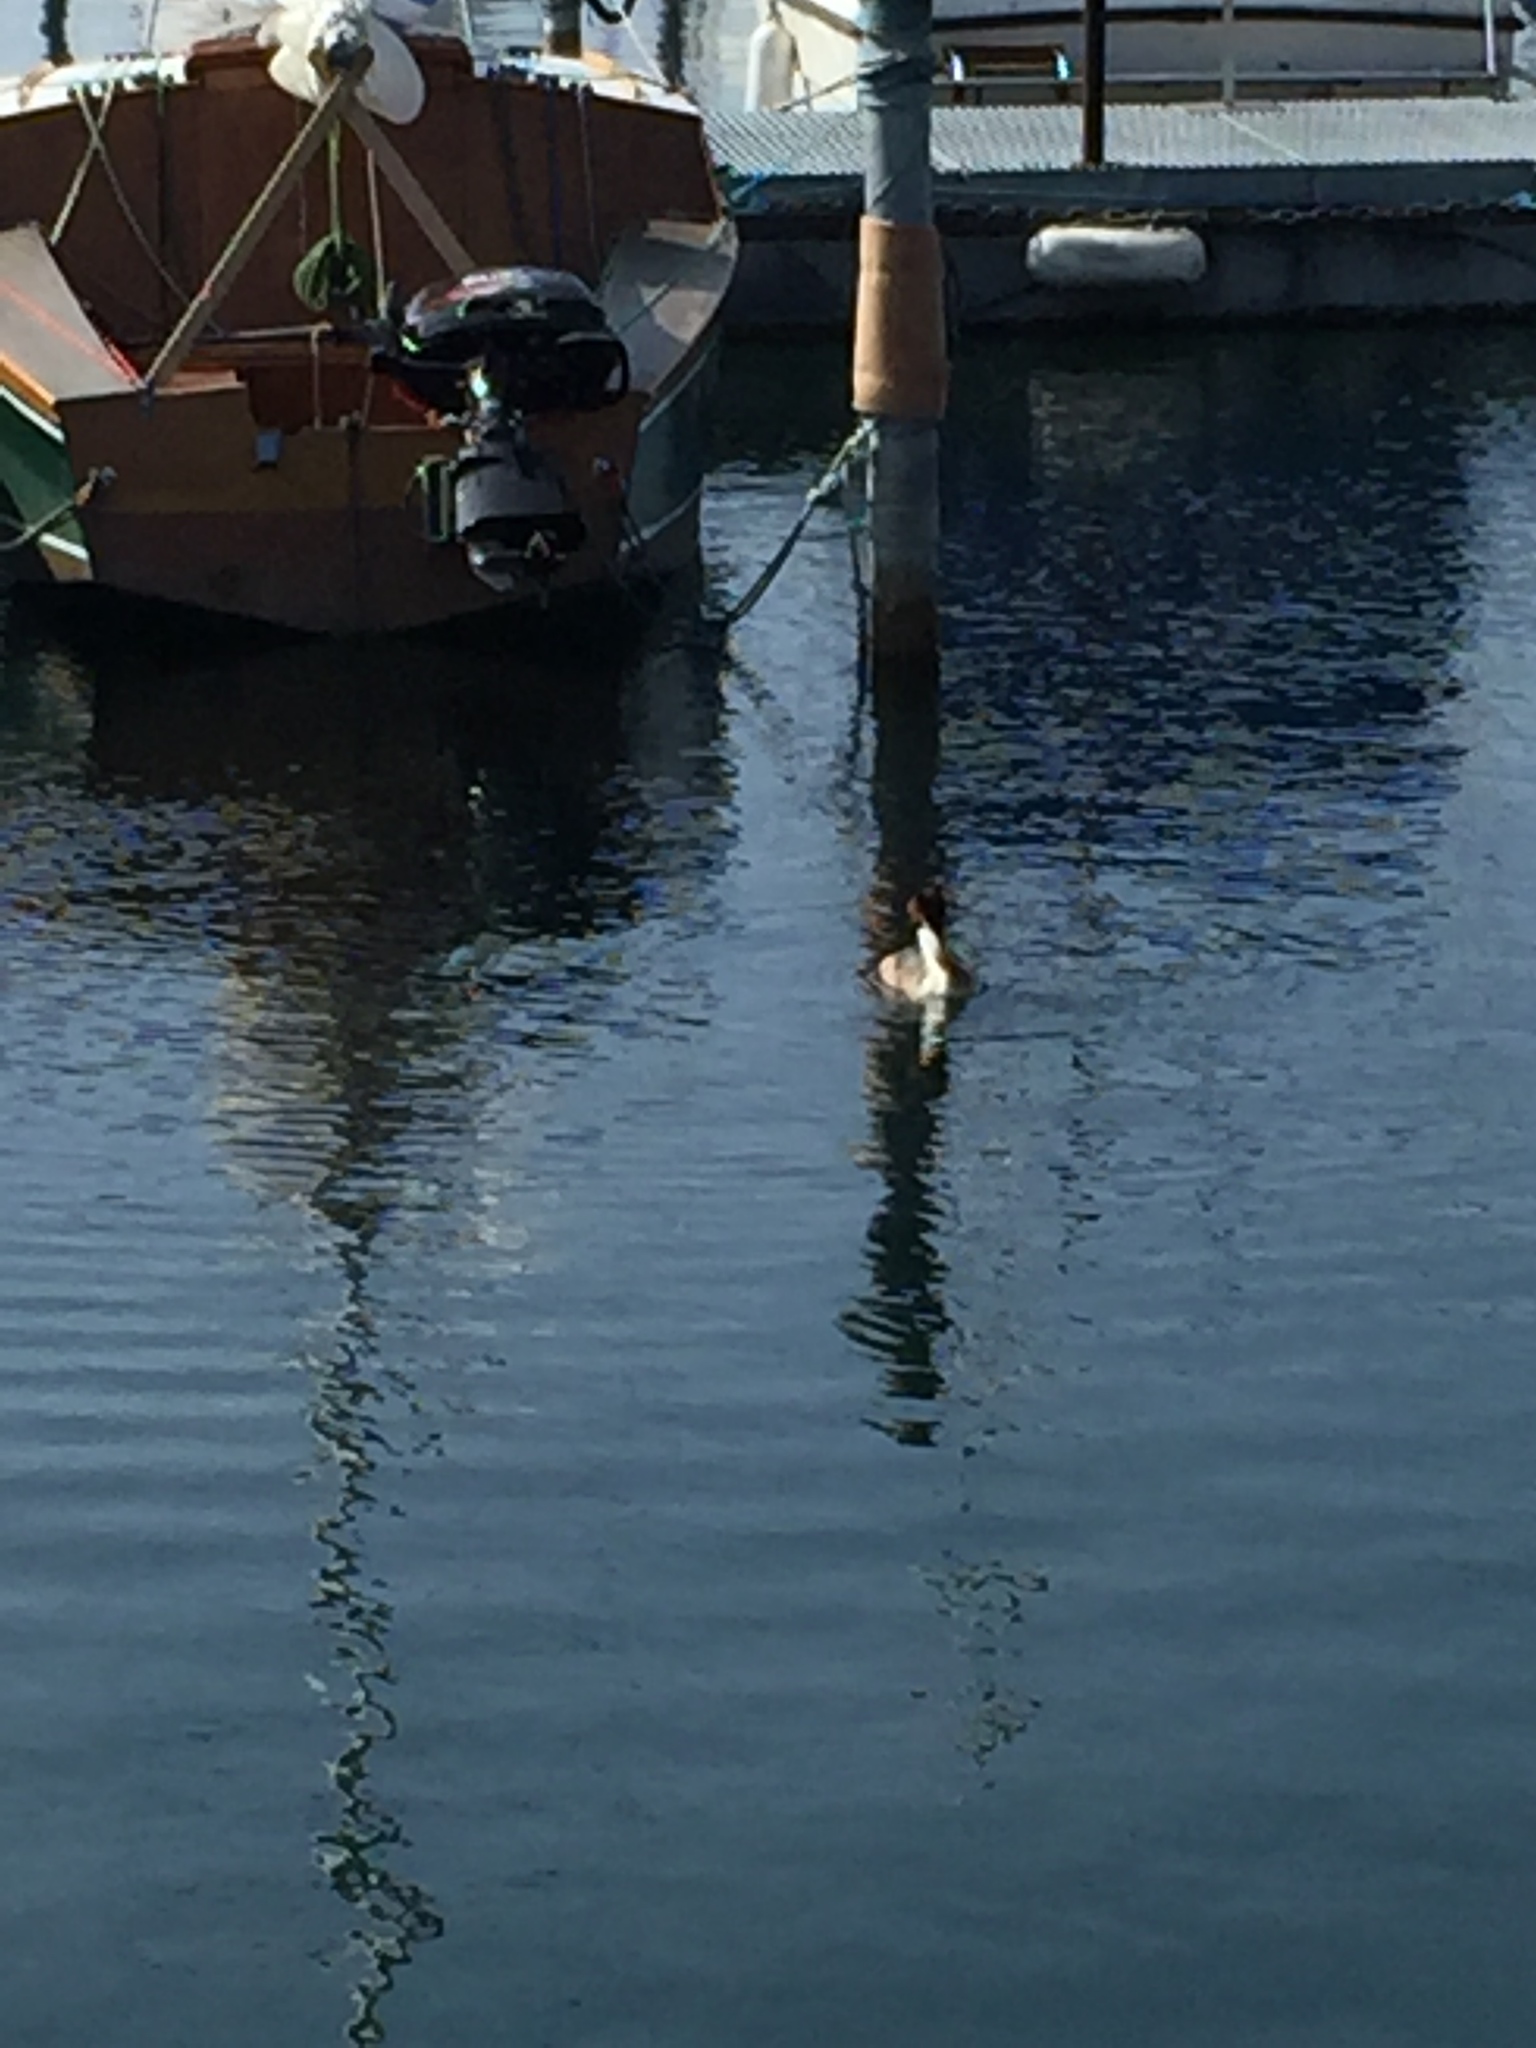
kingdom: Animalia
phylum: Chordata
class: Aves
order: Anseriformes
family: Anatidae
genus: Mergus
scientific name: Mergus merganser
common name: Common merganser
